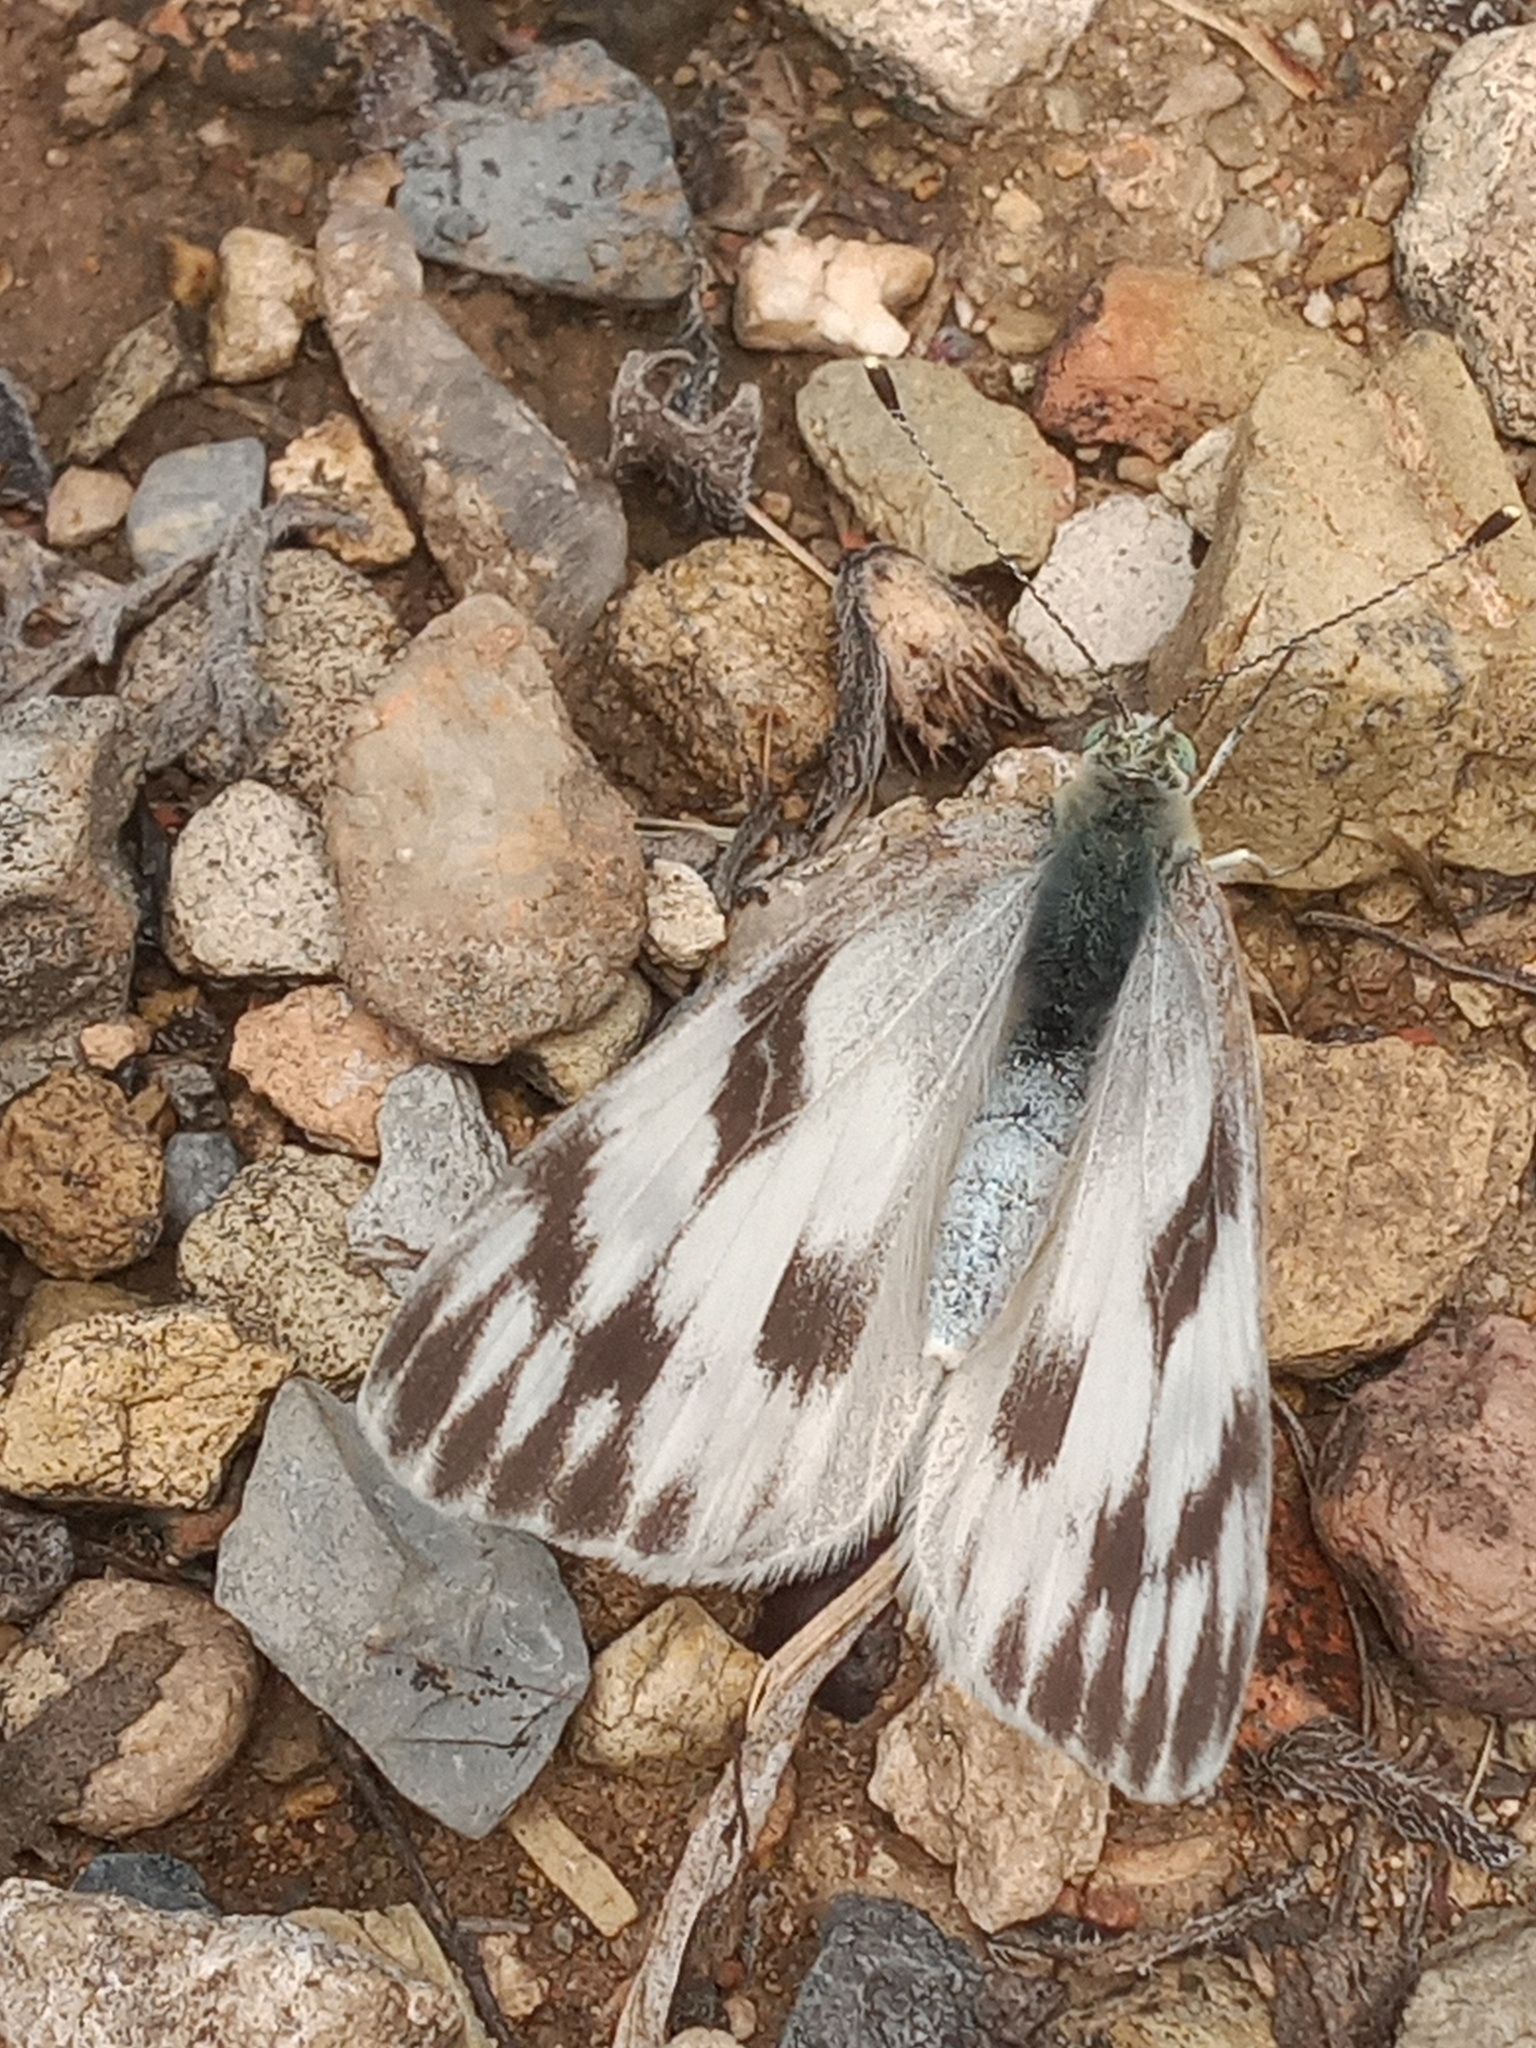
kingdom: Animalia
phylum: Arthropoda
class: Insecta
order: Lepidoptera
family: Pieridae
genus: Pontia
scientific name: Pontia protodice
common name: Checkered white
